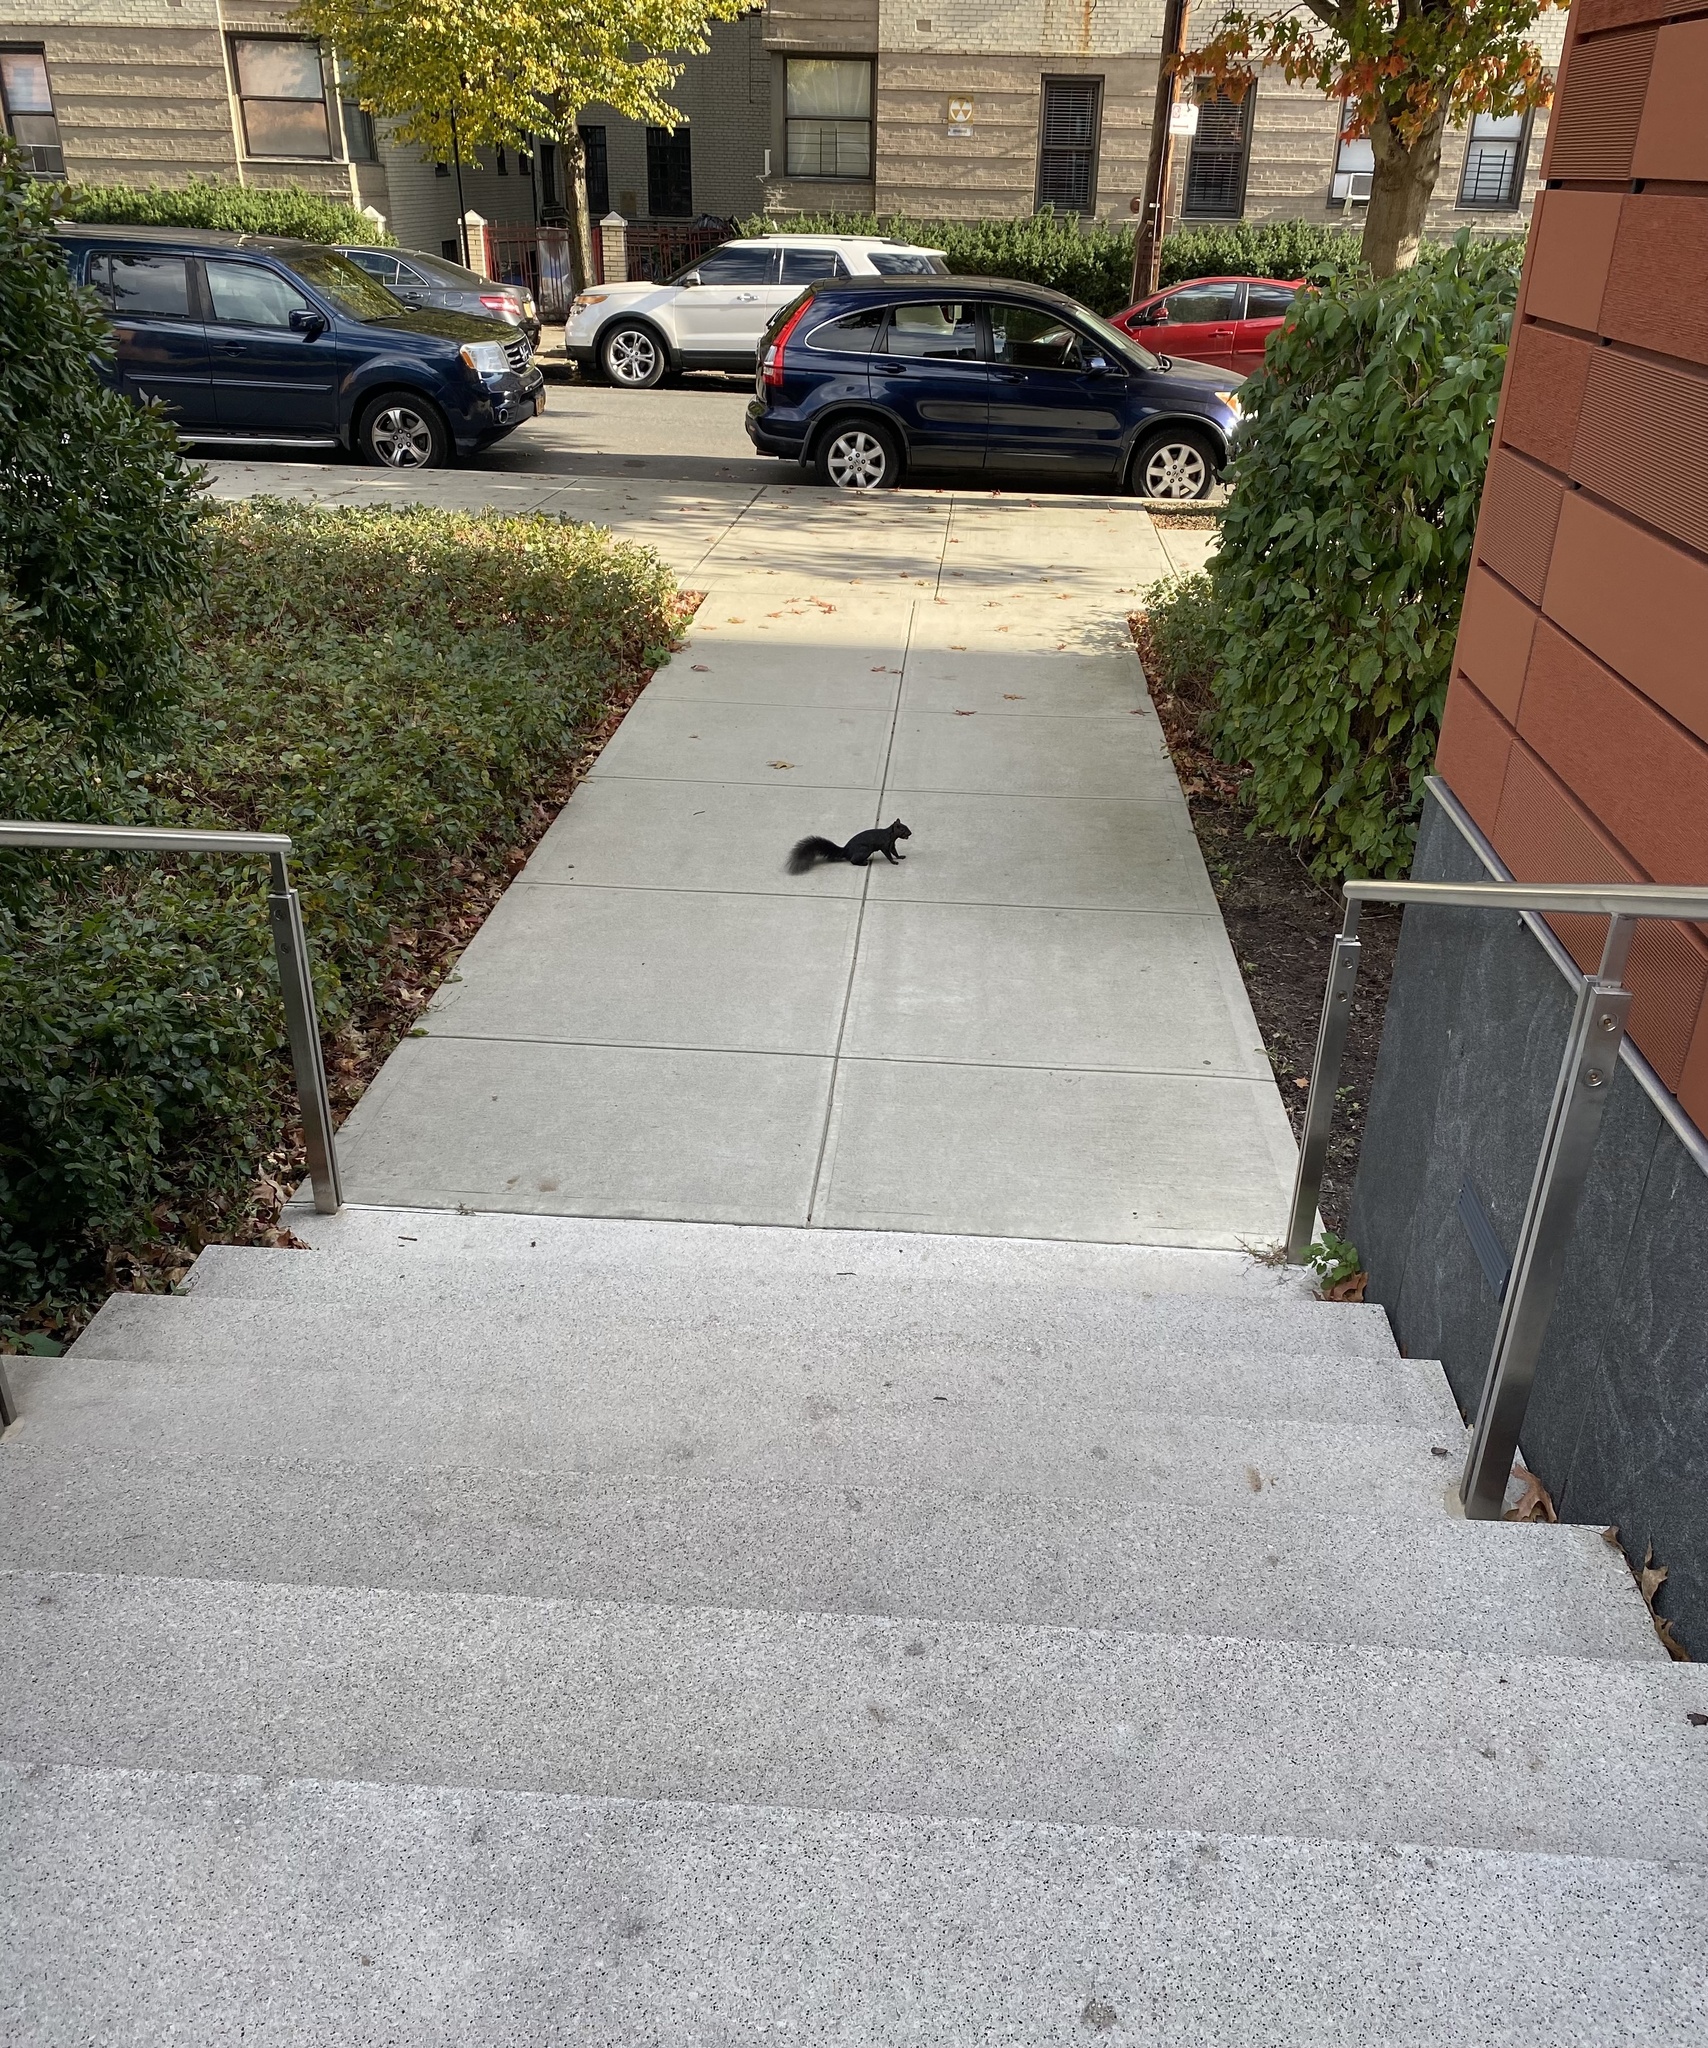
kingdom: Animalia
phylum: Chordata
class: Mammalia
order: Rodentia
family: Sciuridae
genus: Sciurus
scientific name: Sciurus carolinensis
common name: Eastern gray squirrel
